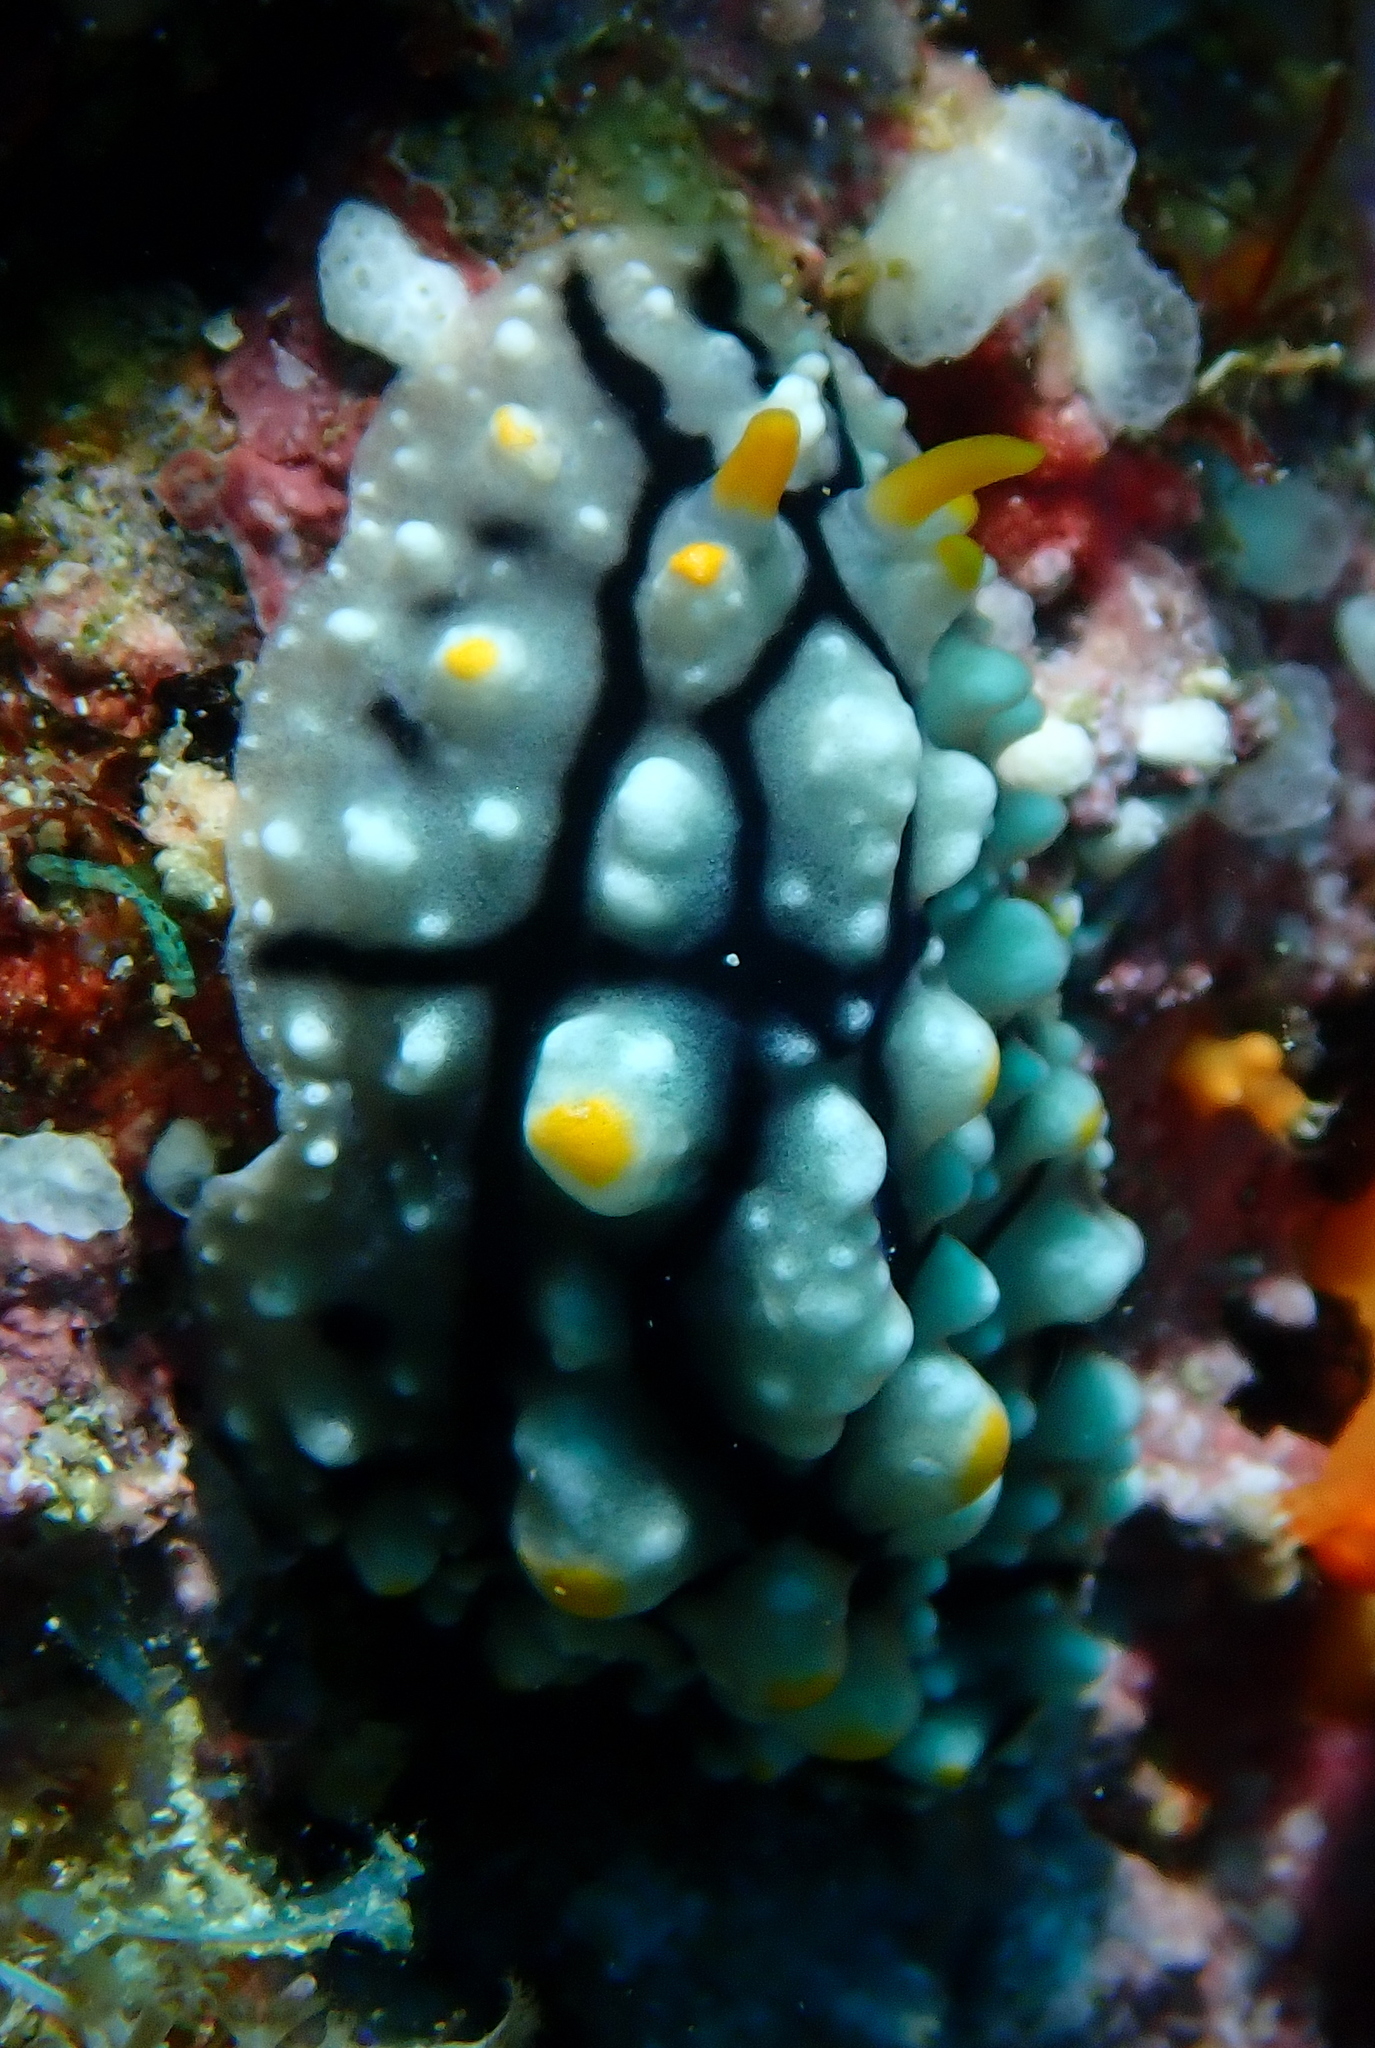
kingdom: Animalia
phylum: Mollusca
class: Gastropoda
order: Nudibranchia
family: Phyllidiidae
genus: Phyllidia
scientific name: Phyllidia elegans
